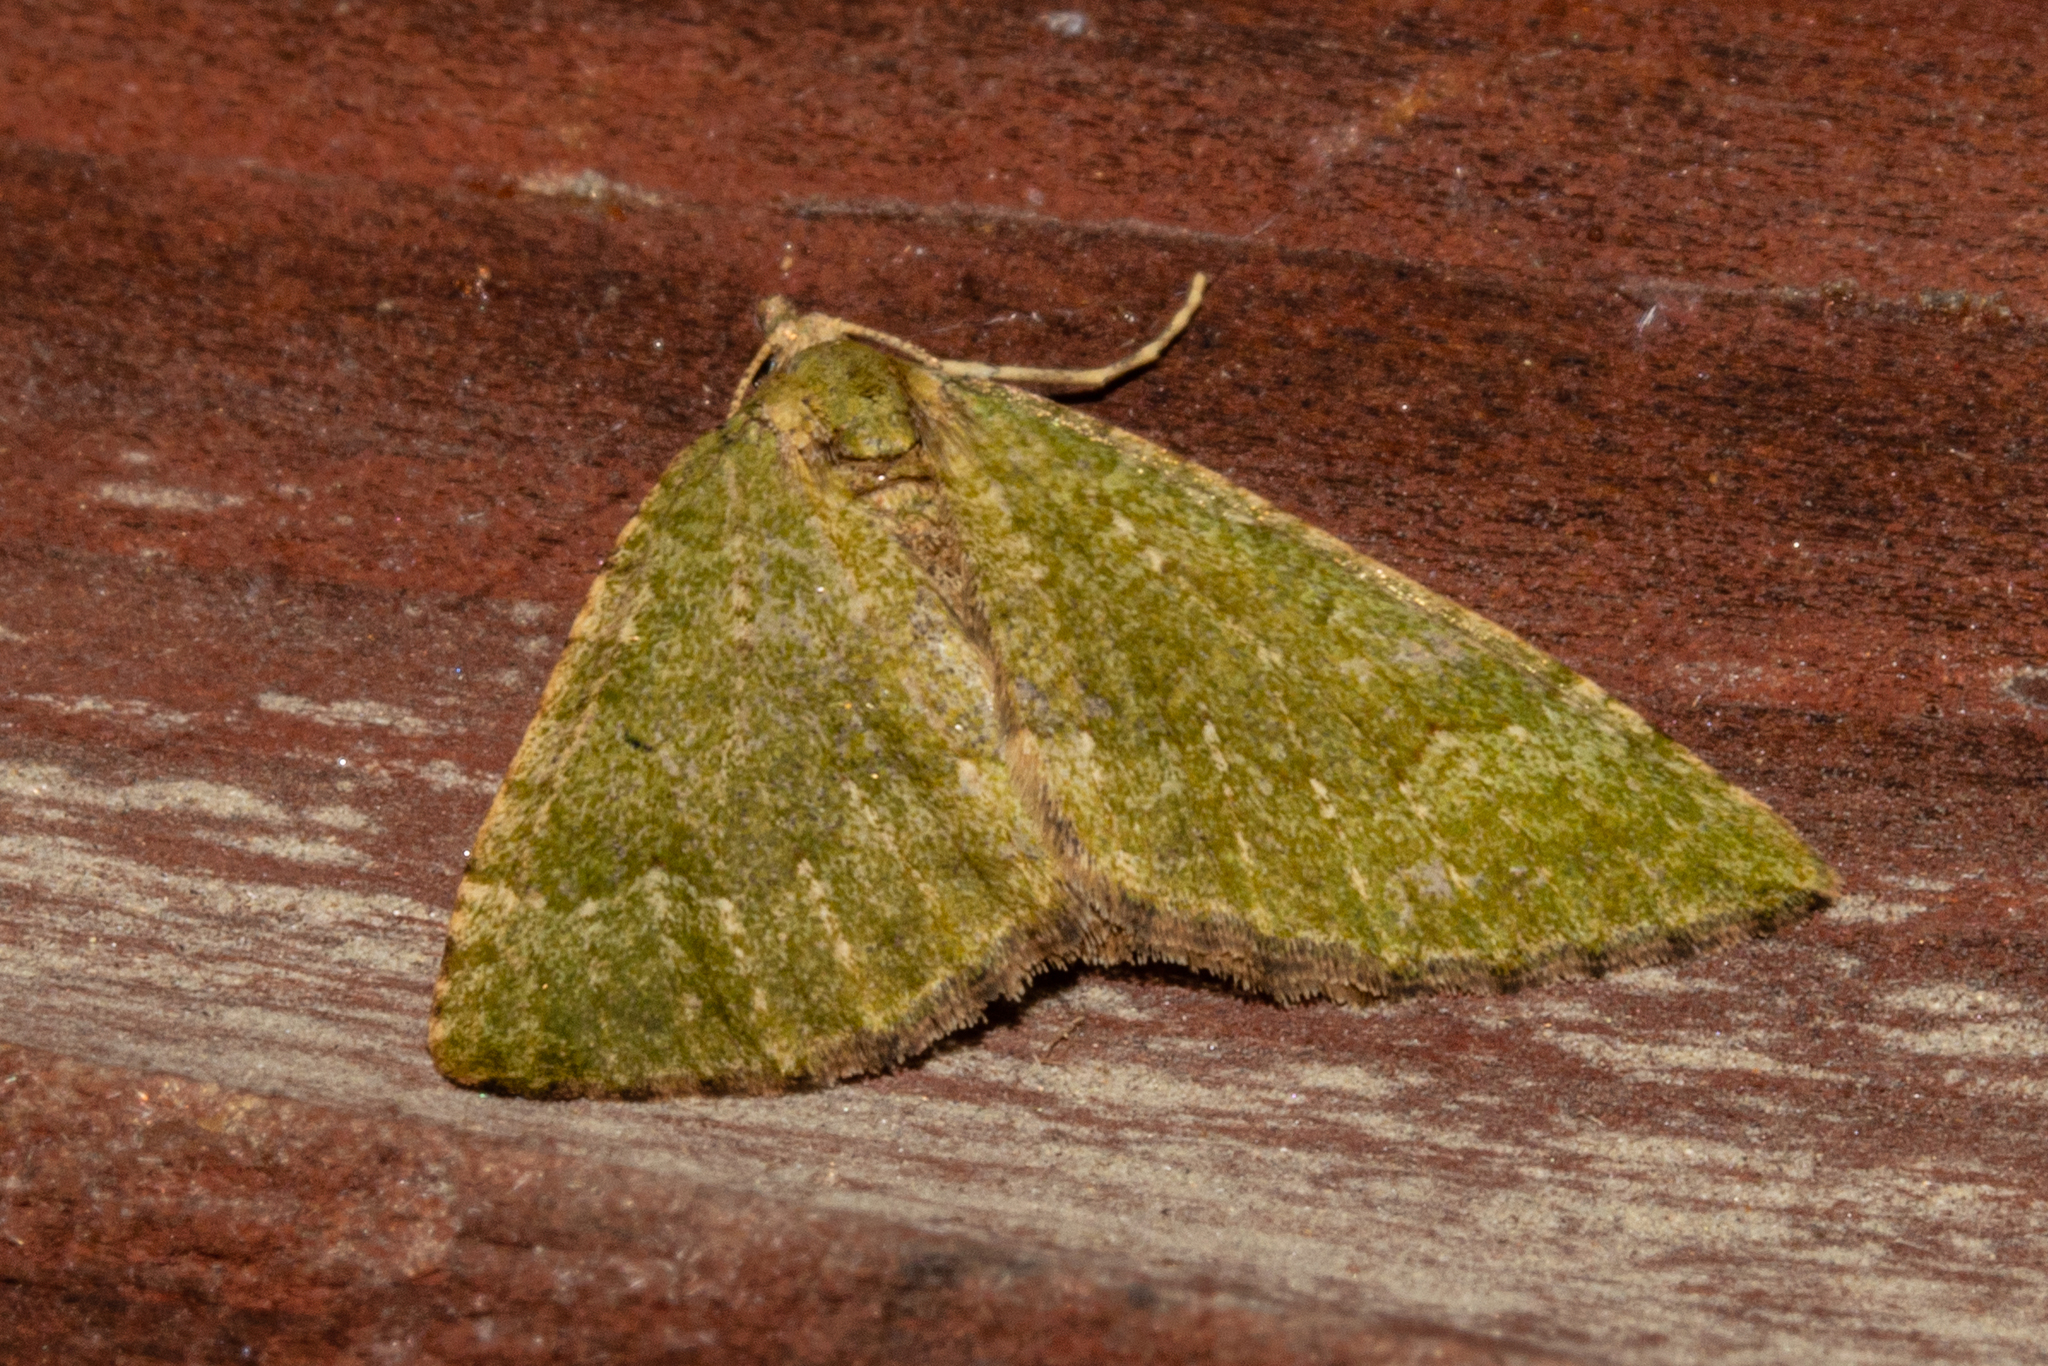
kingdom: Animalia
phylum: Arthropoda
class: Insecta
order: Lepidoptera
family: Geometridae
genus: Epyaxa
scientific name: Epyaxa rosearia
